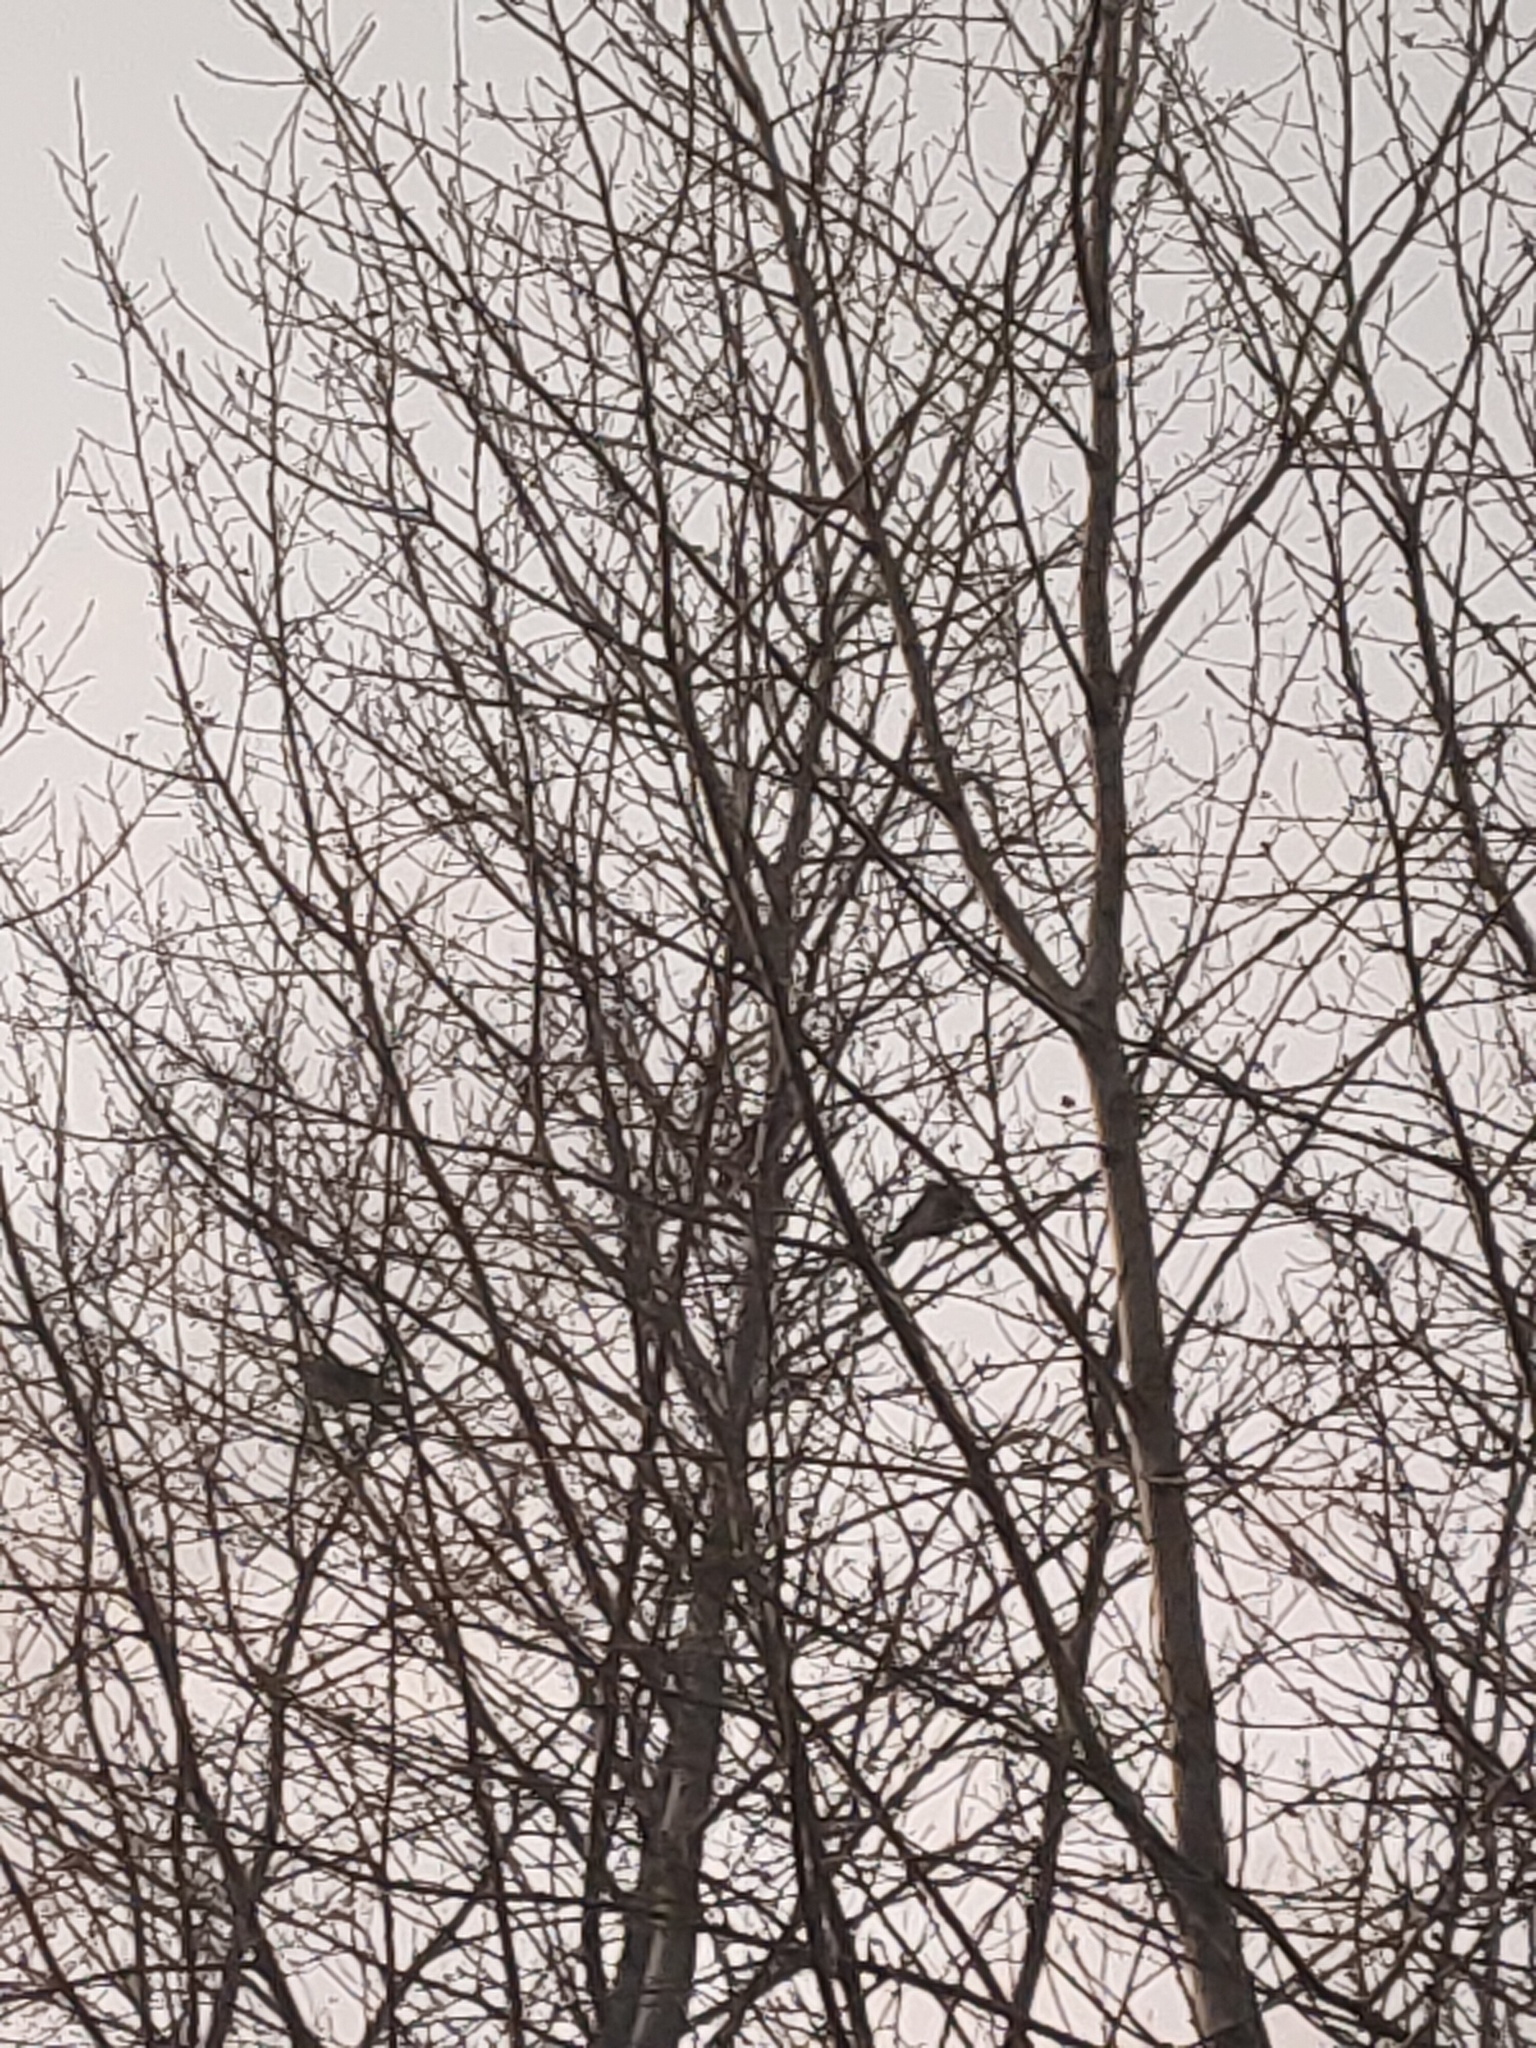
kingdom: Animalia
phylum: Chordata
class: Aves
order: Passeriformes
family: Corvidae
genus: Corvus
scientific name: Corvus cornix
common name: Hooded crow
